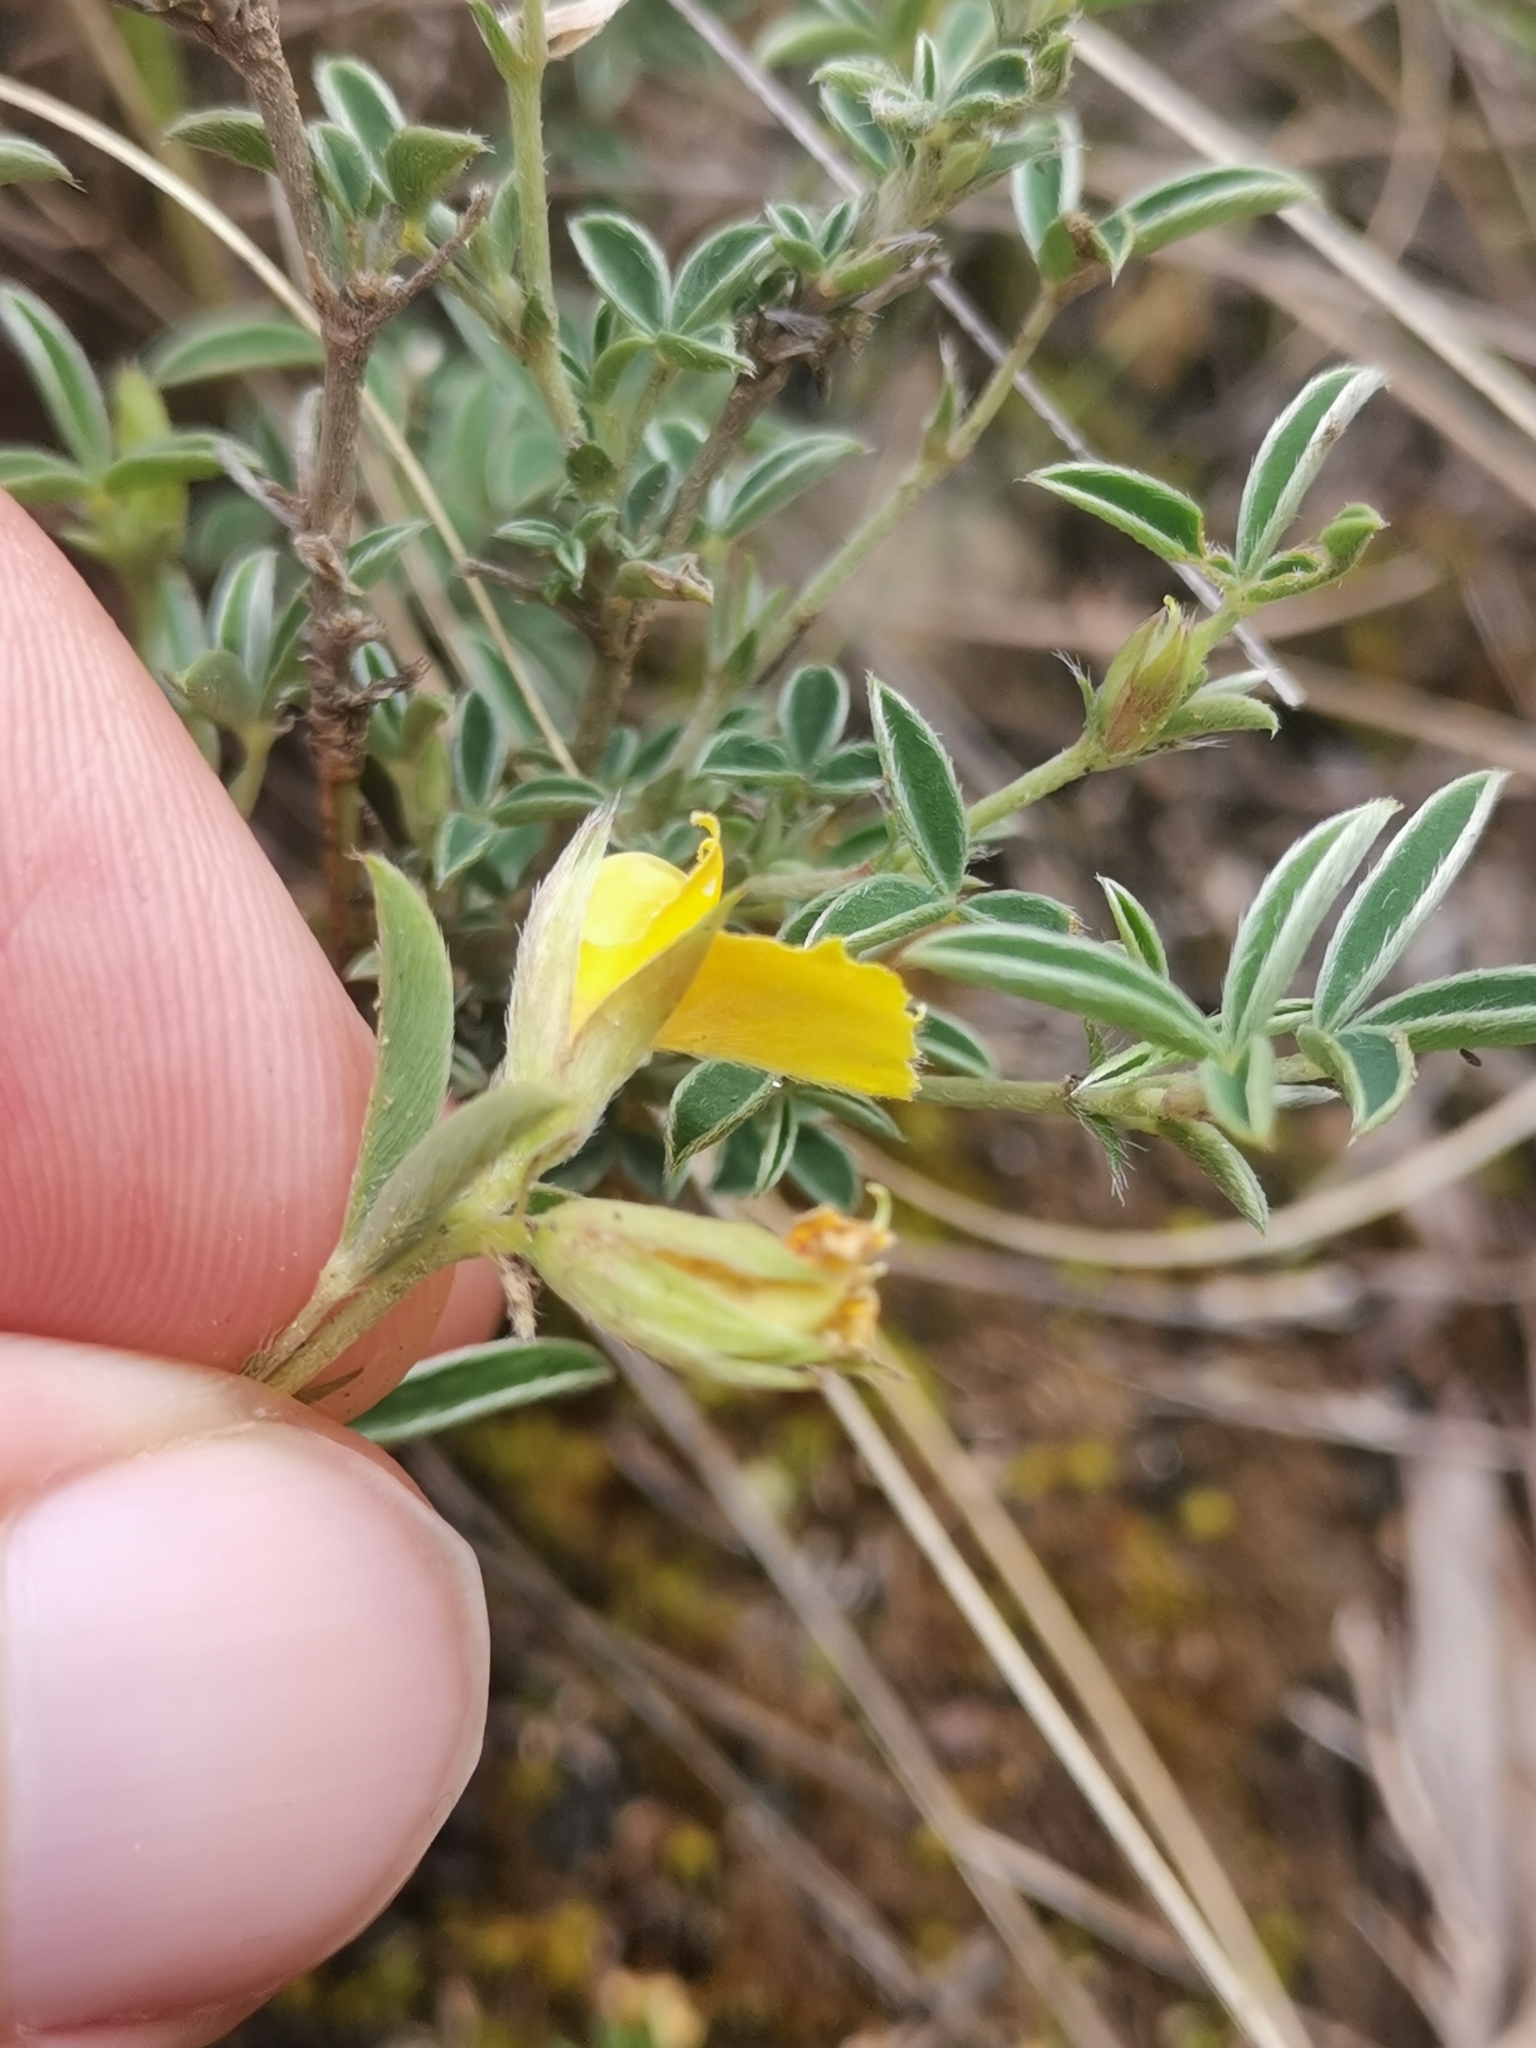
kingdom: Plantae
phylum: Tracheophyta
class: Magnoliopsida
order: Fabales
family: Fabaceae
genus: Argyrolobium
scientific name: Argyrolobium zanonii
